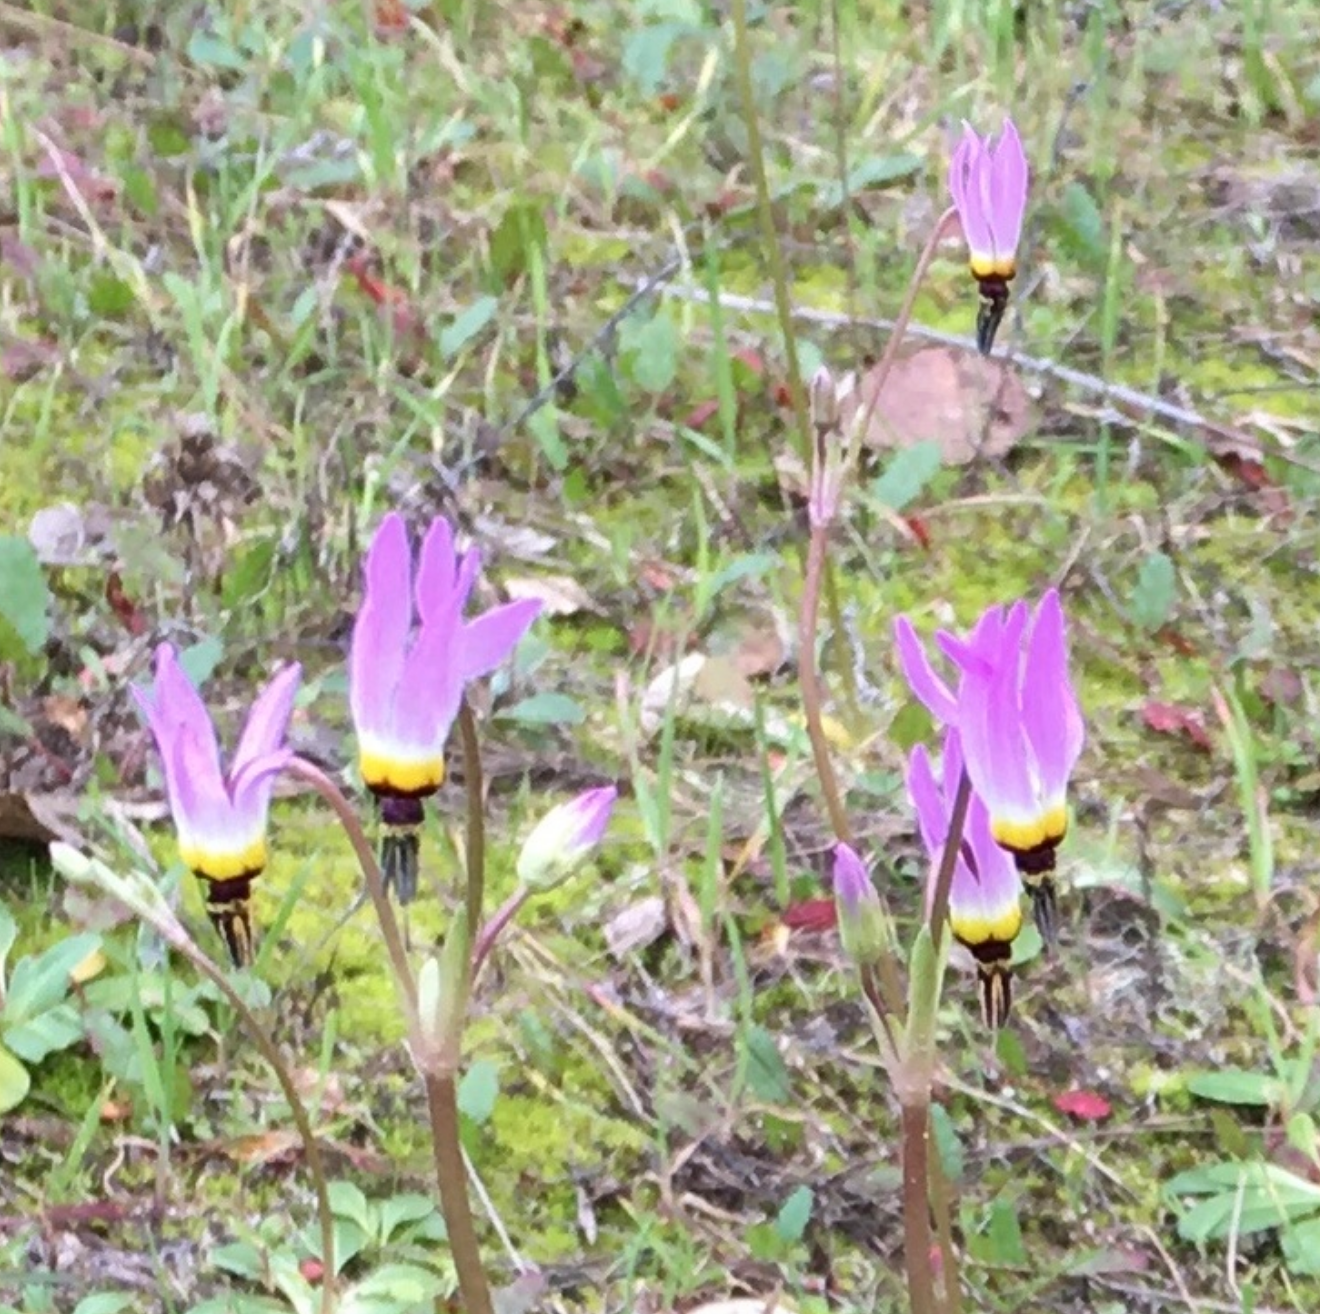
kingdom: Plantae
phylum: Tracheophyta
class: Magnoliopsida
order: Ericales
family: Primulaceae
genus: Dodecatheon
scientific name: Dodecatheon clevelandii
